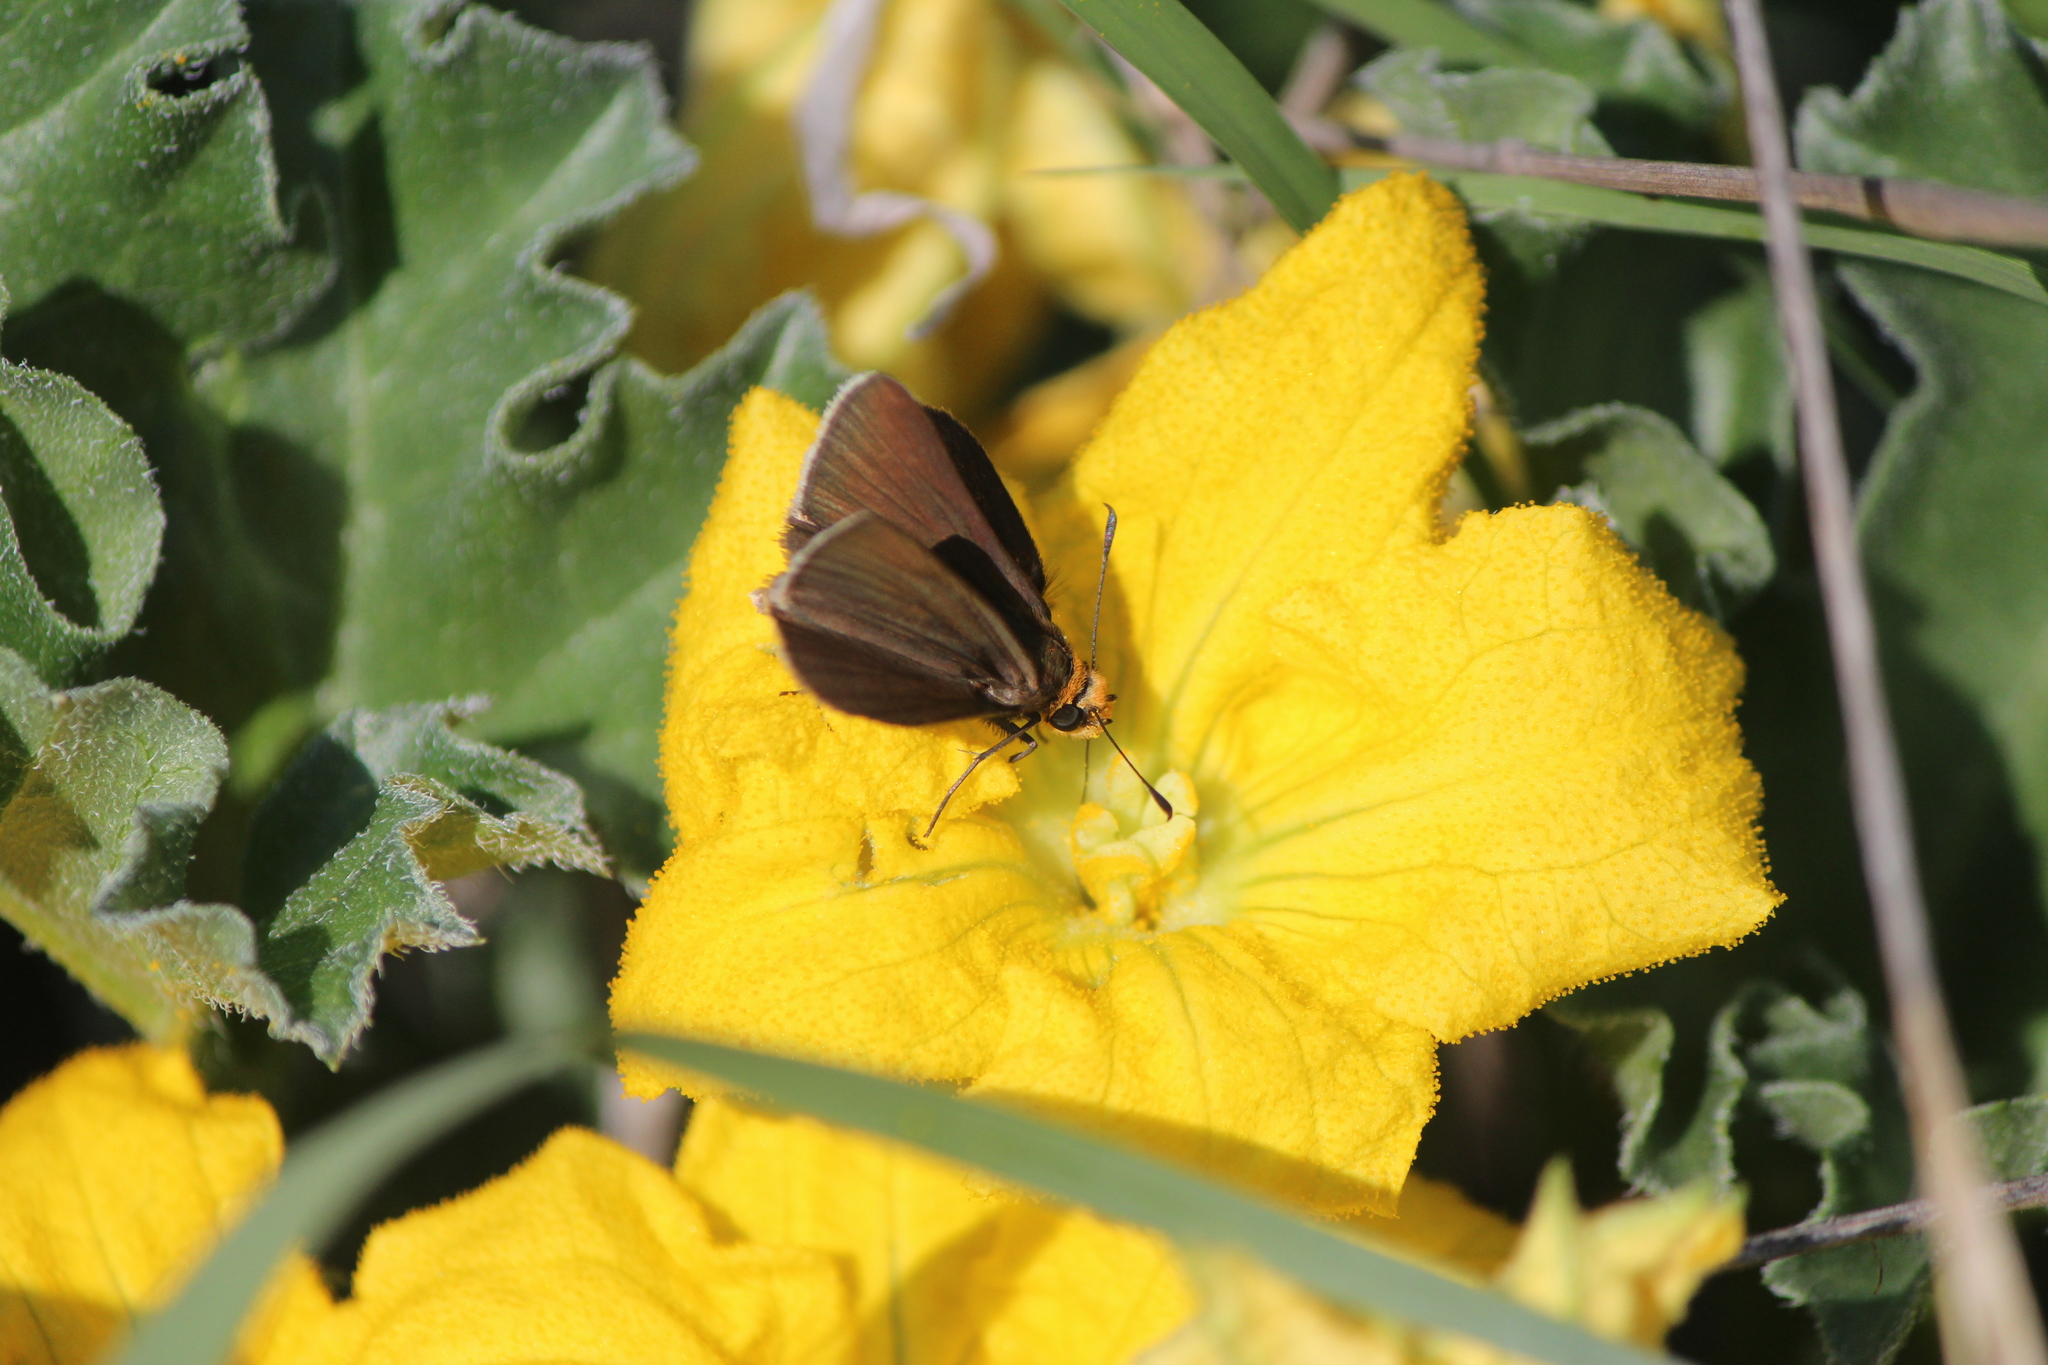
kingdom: Animalia
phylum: Arthropoda
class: Insecta
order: Lepidoptera
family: Hesperiidae
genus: Mastor
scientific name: Mastor phylace
